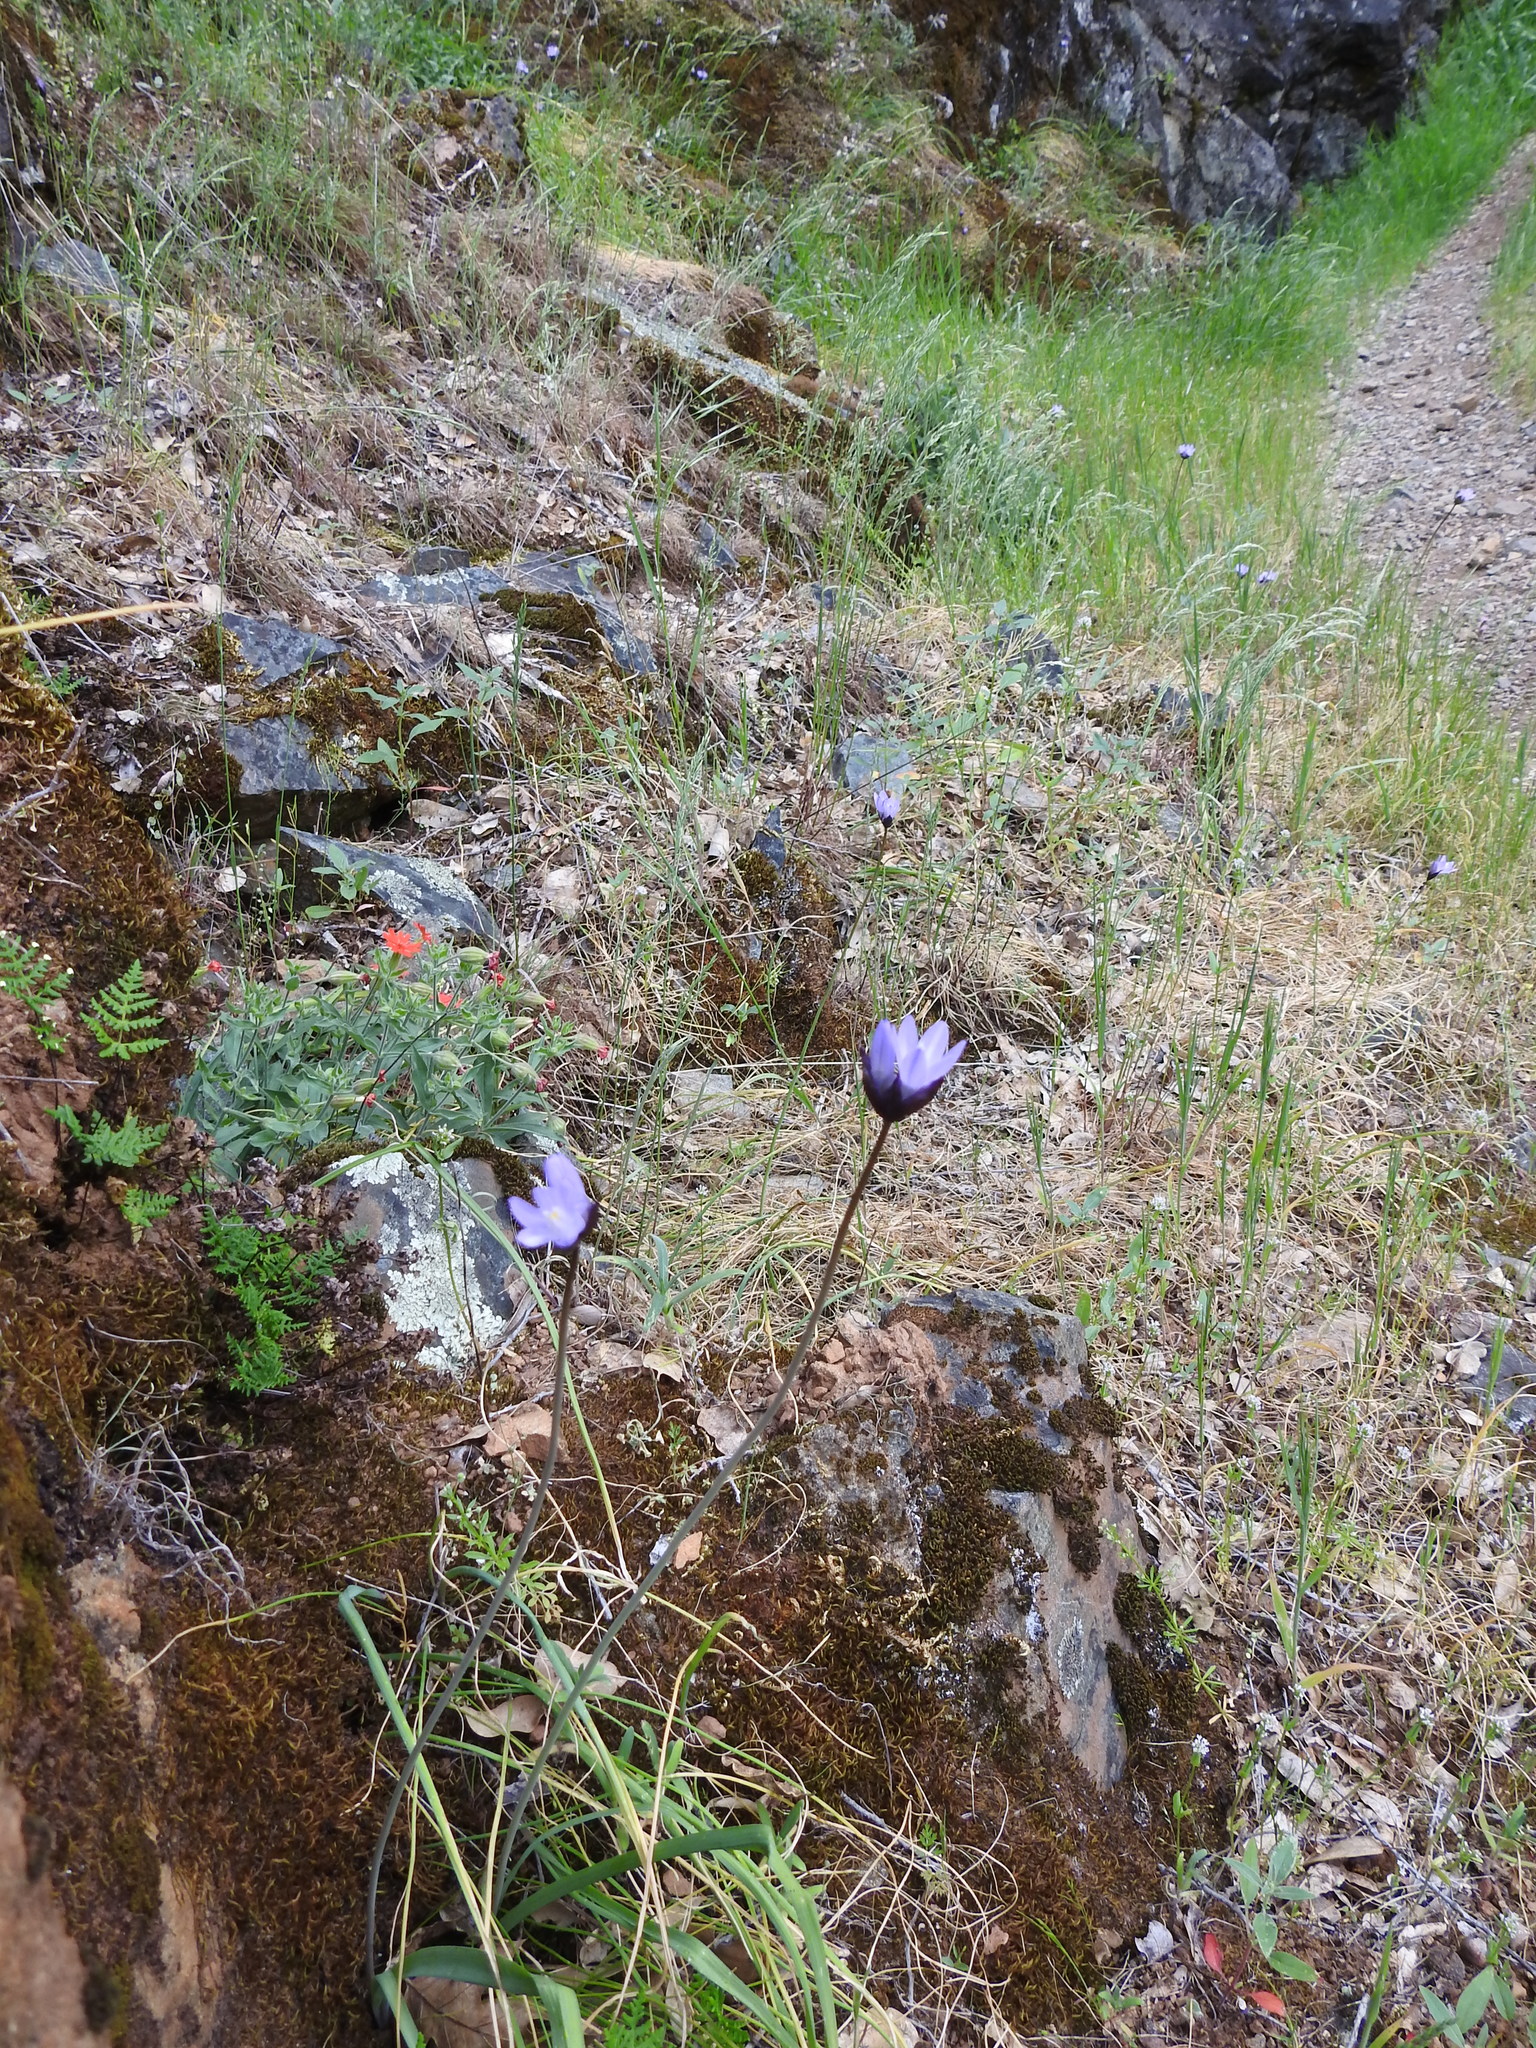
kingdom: Plantae
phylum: Tracheophyta
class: Liliopsida
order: Asparagales
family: Asparagaceae
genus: Dipterostemon
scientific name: Dipterostemon capitatus
